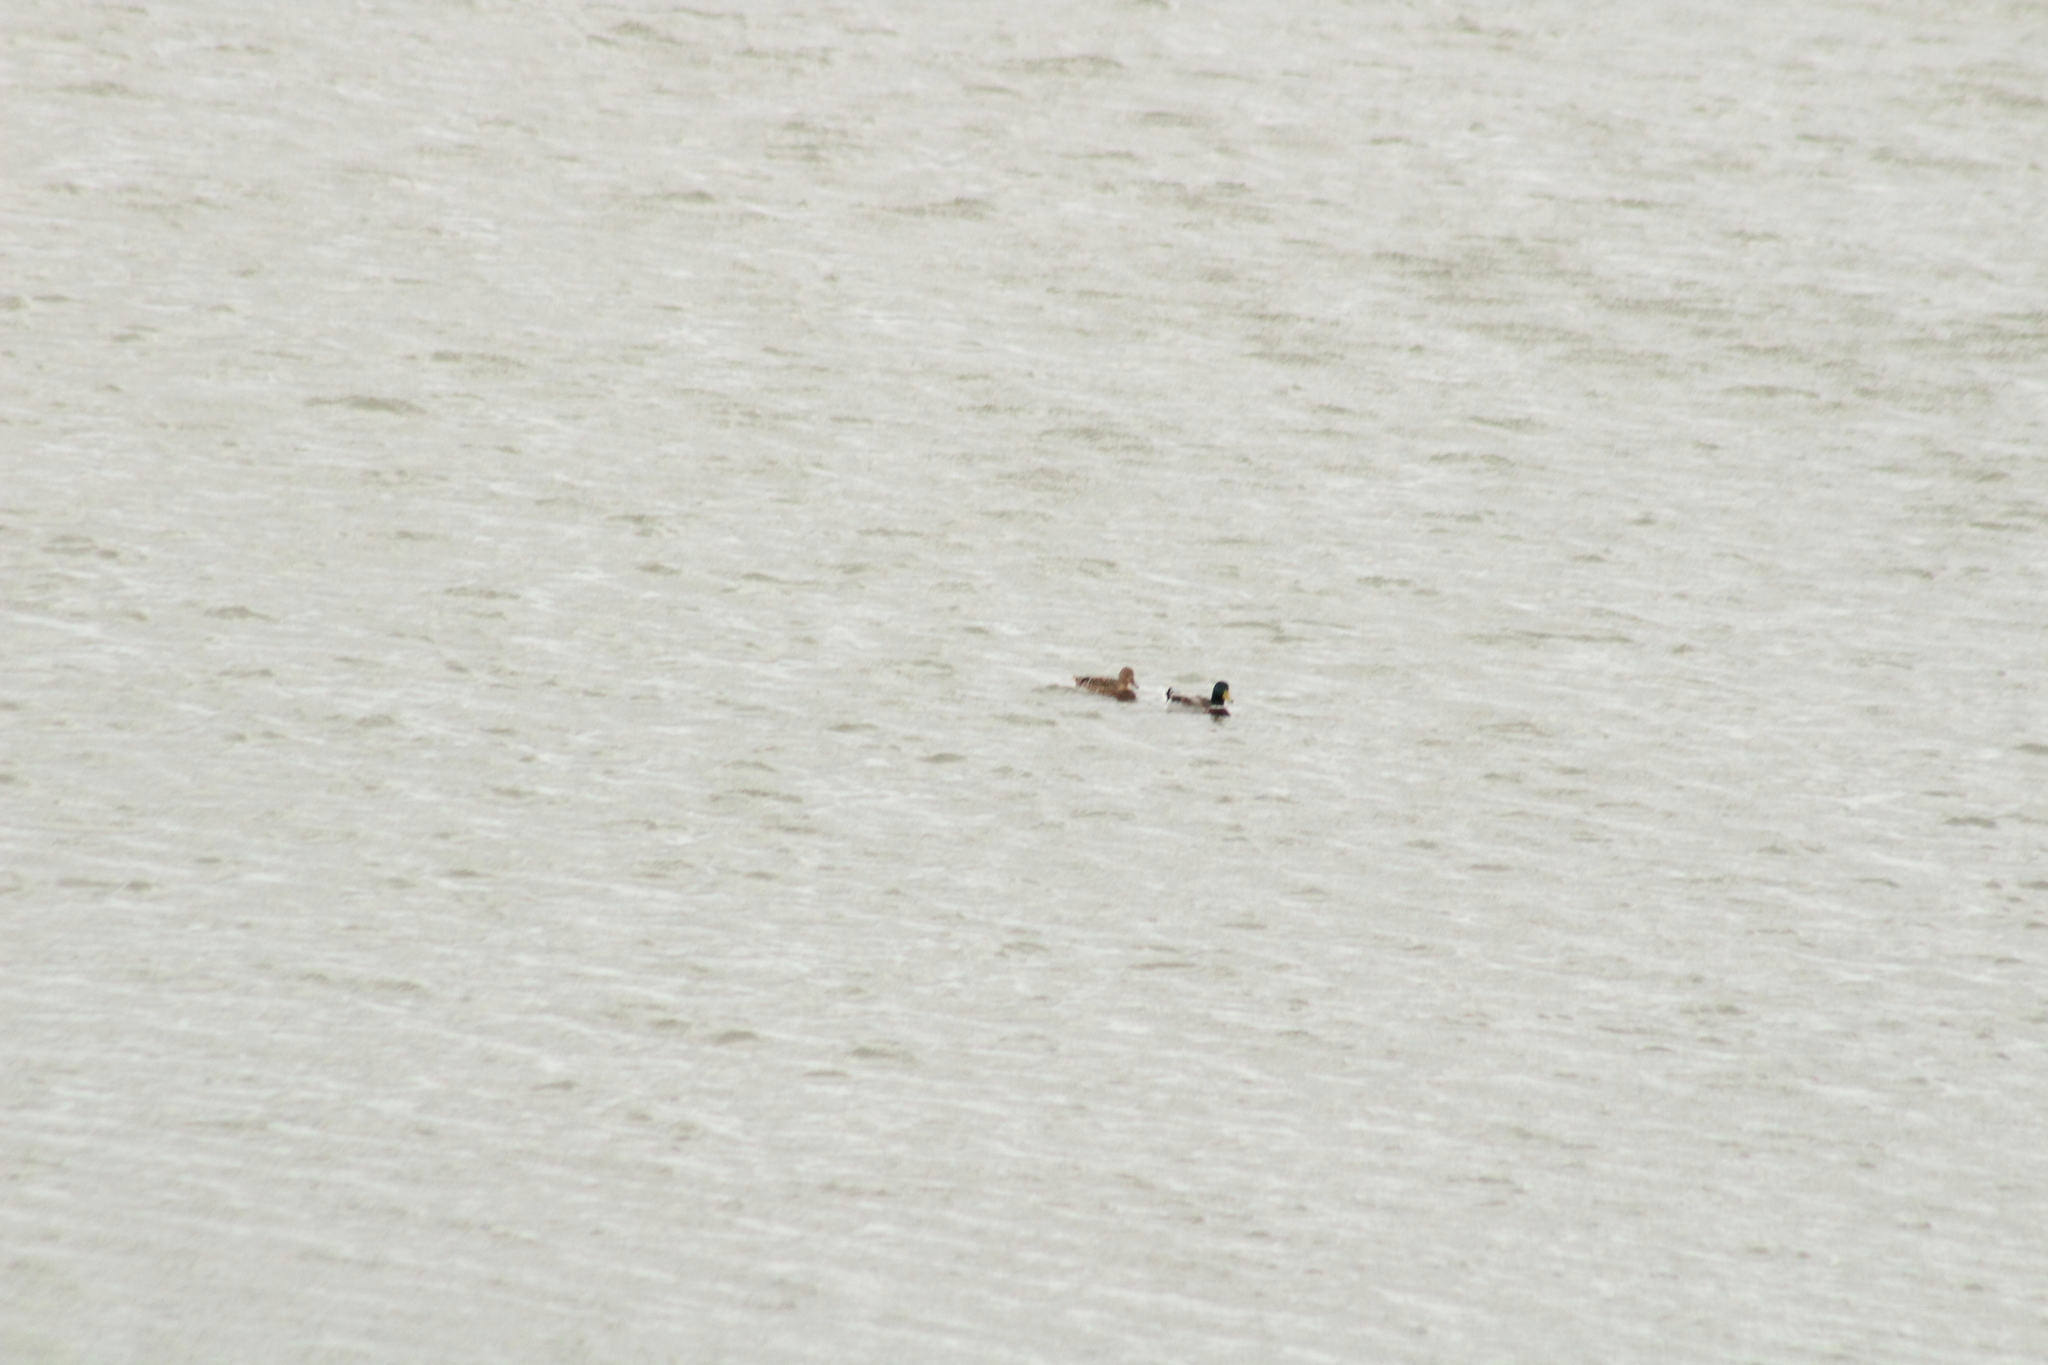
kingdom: Animalia
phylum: Chordata
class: Aves
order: Anseriformes
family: Anatidae
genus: Anas
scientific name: Anas platyrhynchos
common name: Mallard
